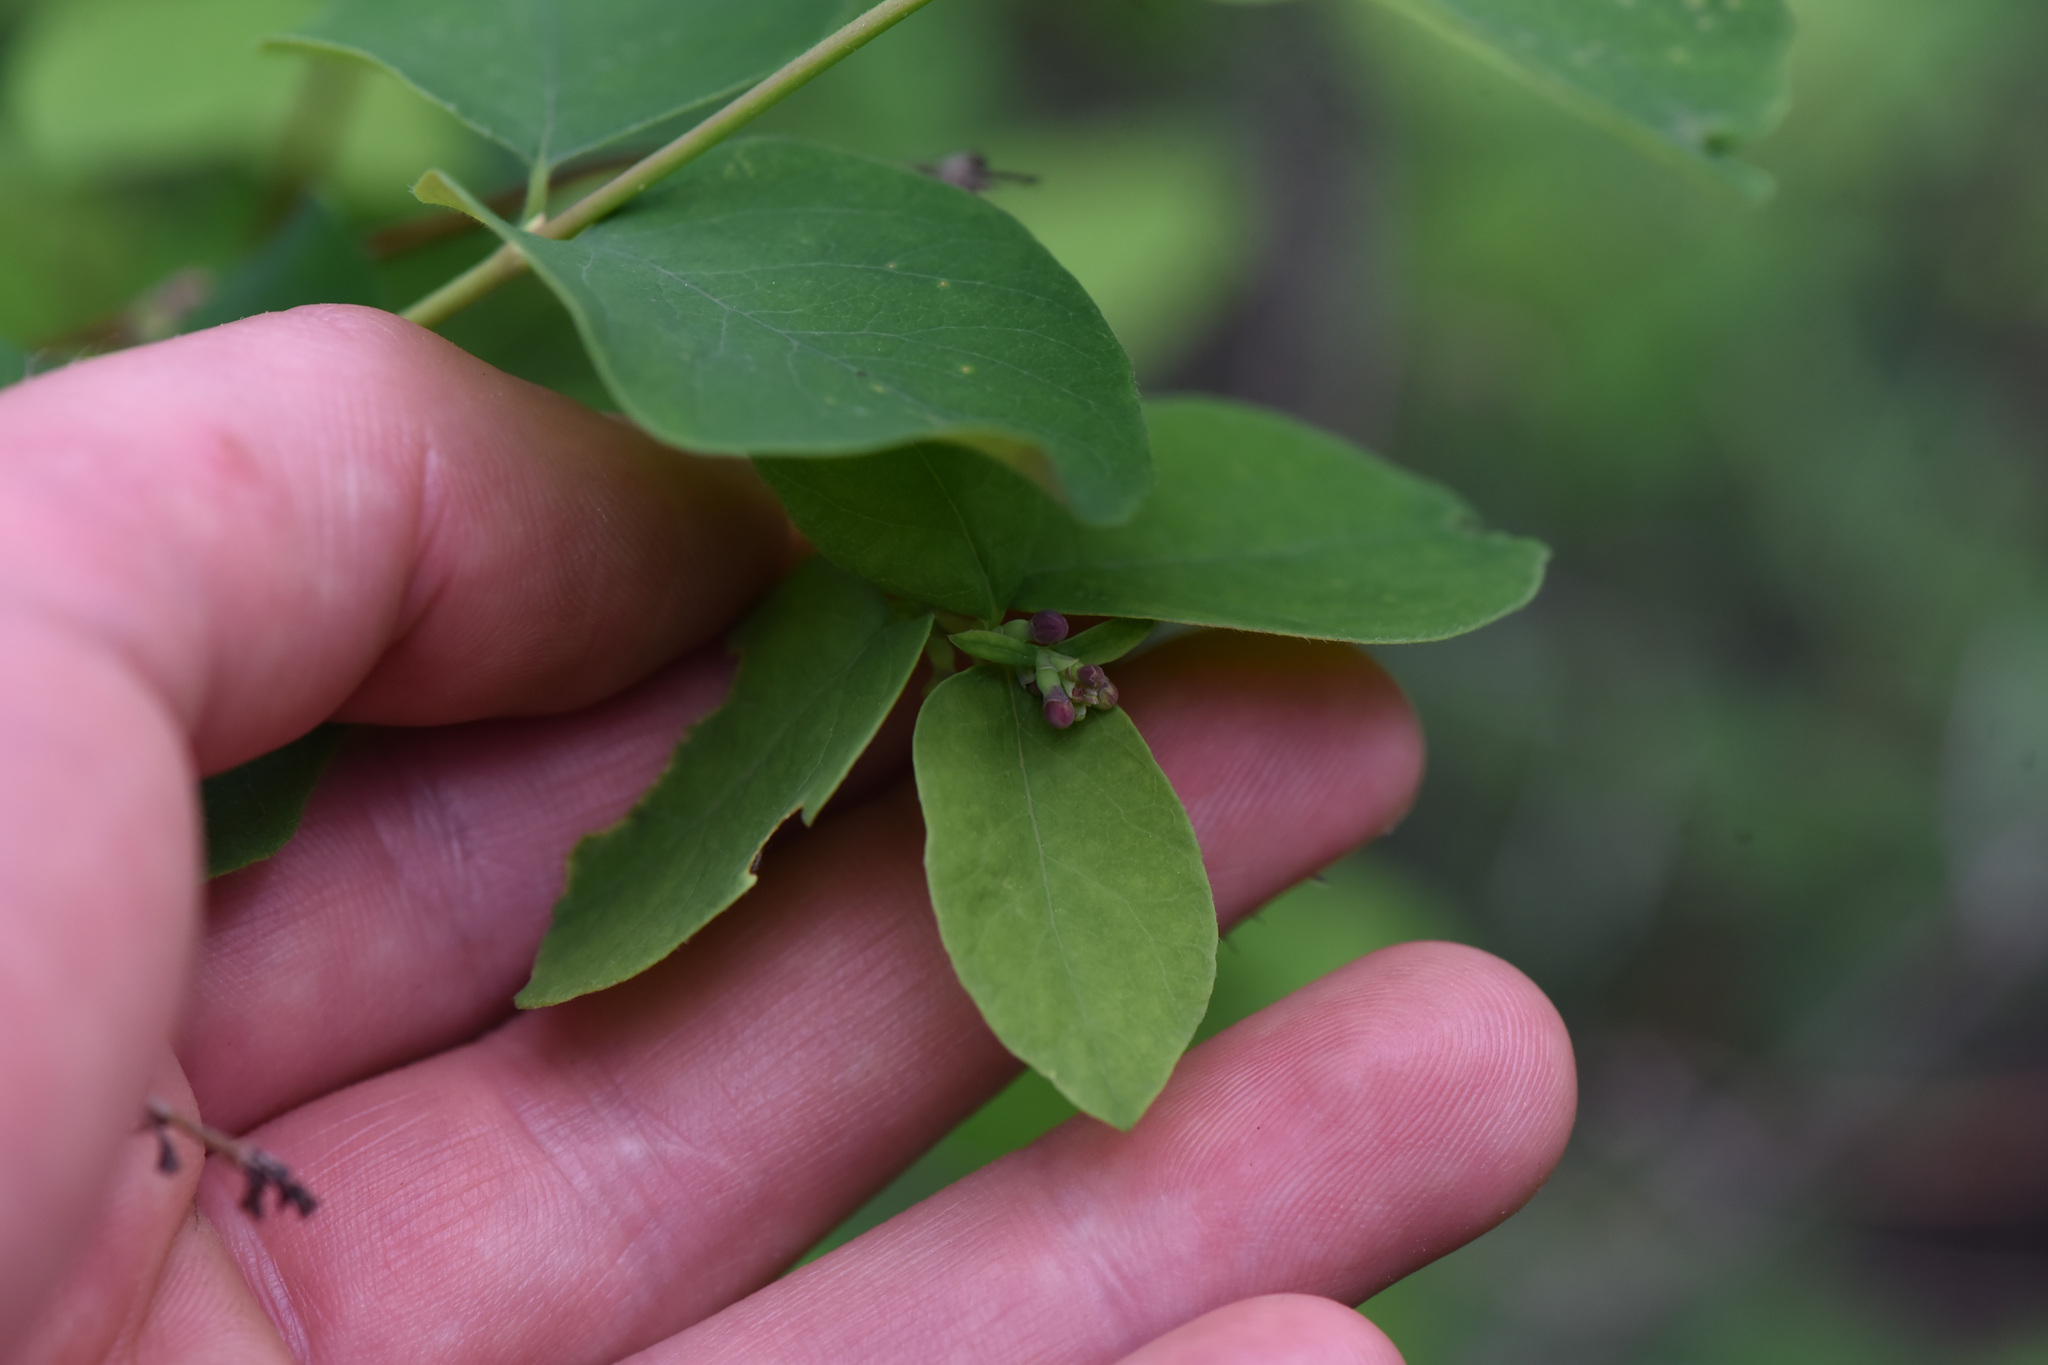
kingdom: Plantae
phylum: Tracheophyta
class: Magnoliopsida
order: Dipsacales
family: Caprifoliaceae
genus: Symphoricarpos
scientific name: Symphoricarpos
